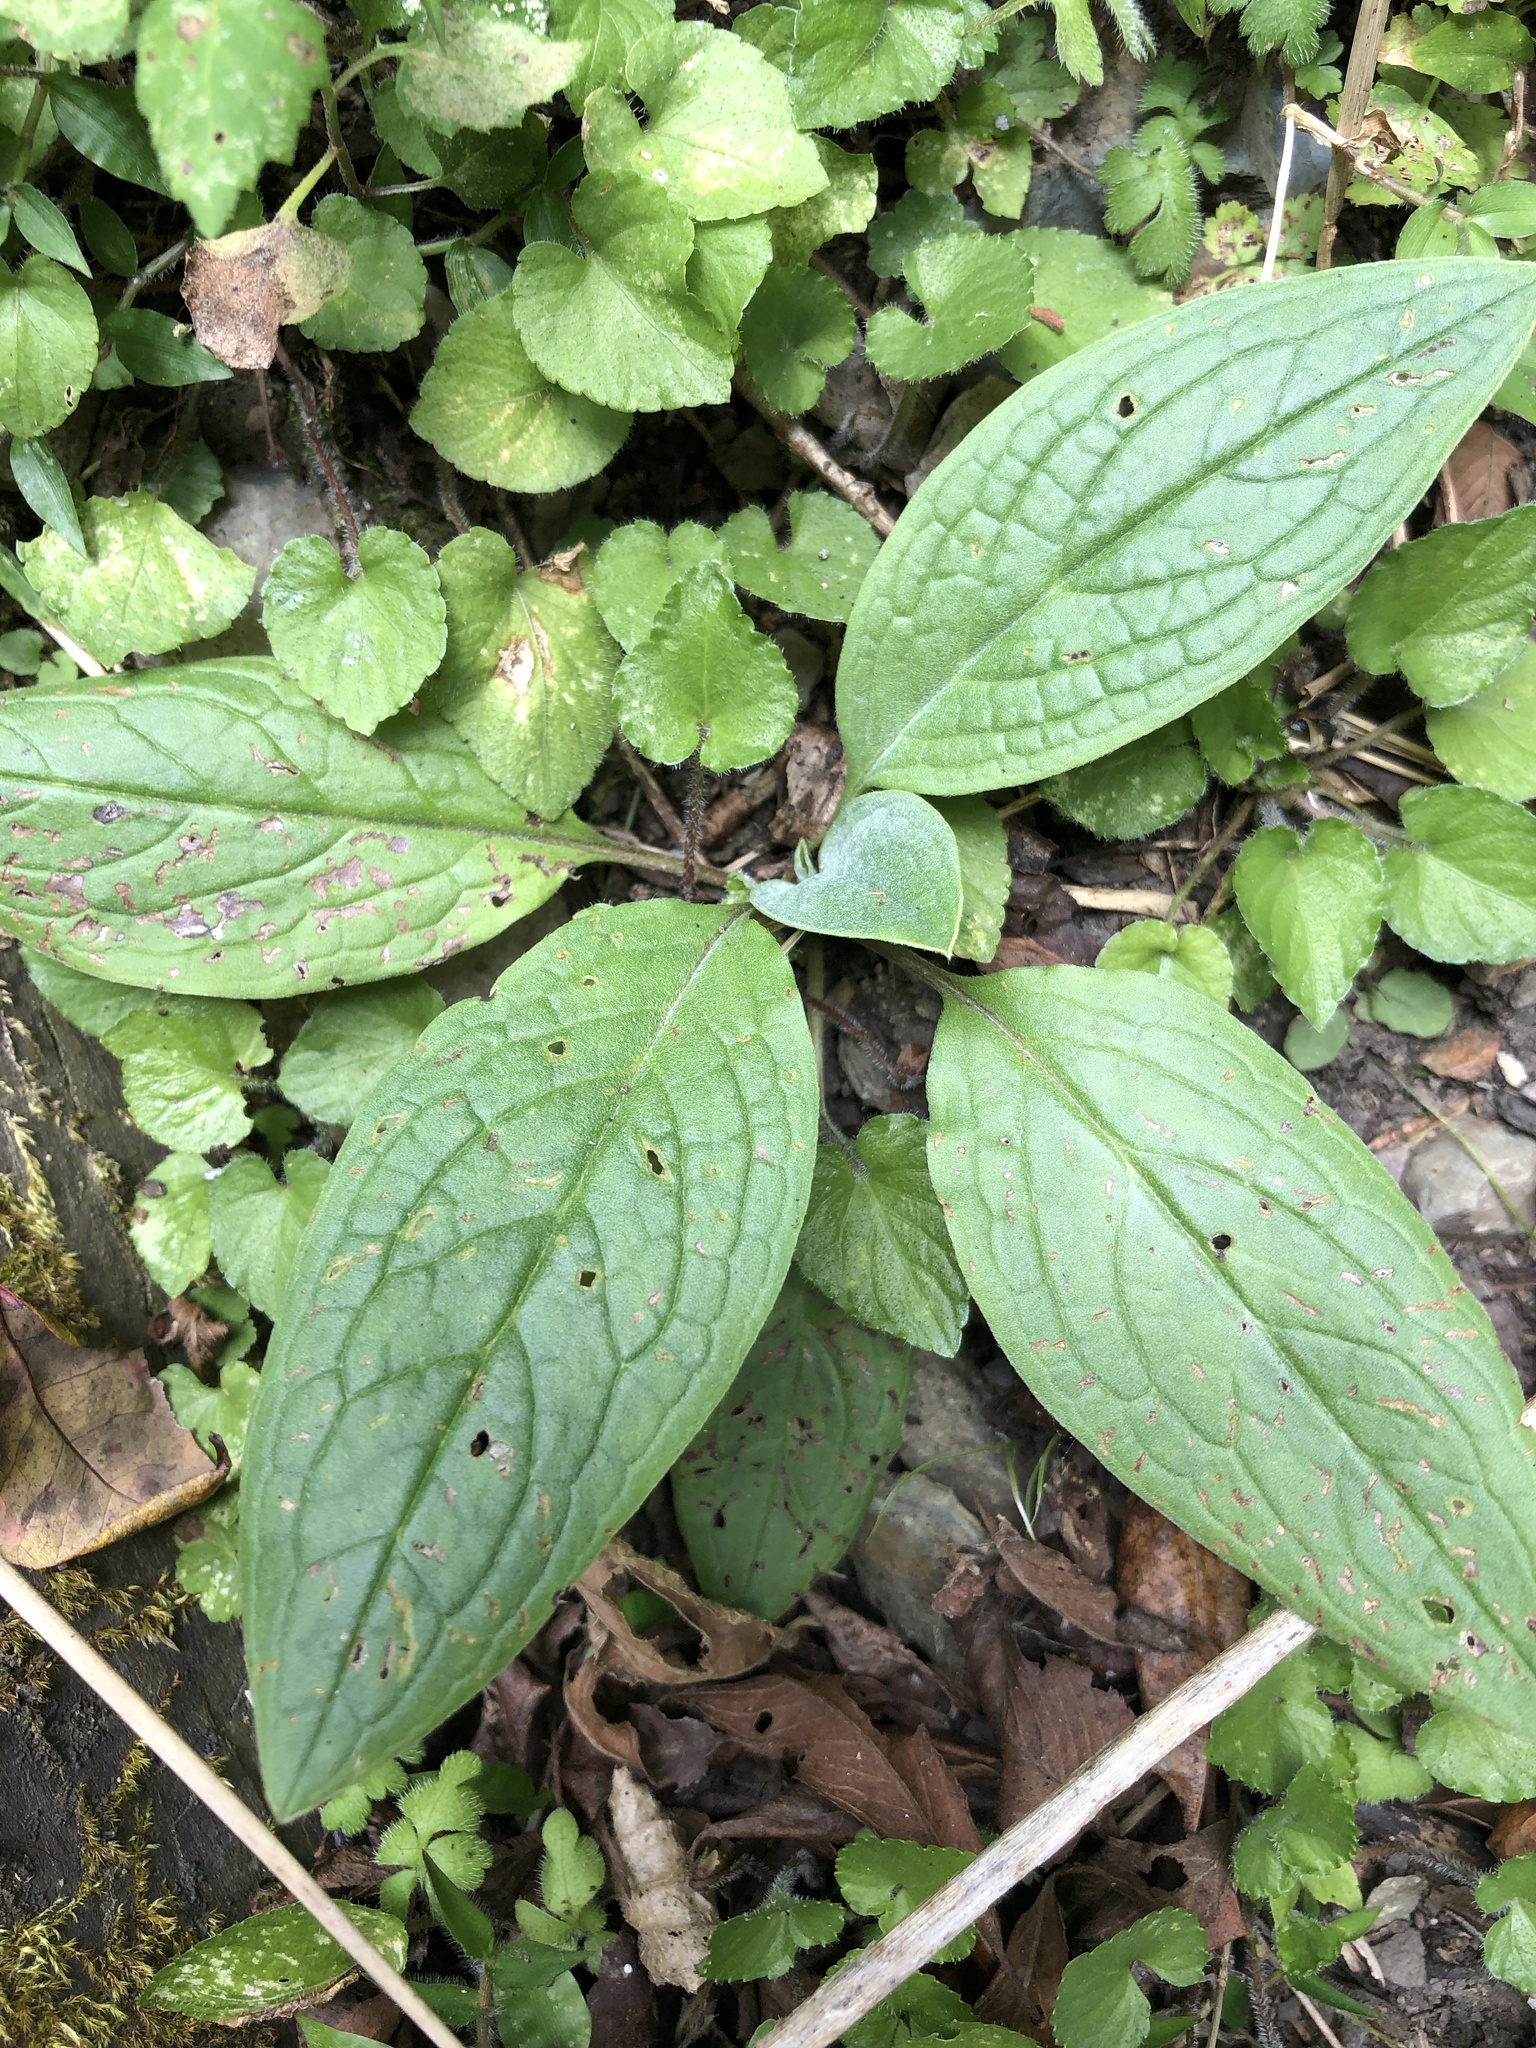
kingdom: Plantae
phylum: Tracheophyta
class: Magnoliopsida
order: Boraginales
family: Boraginaceae
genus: Cynoglossum
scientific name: Cynoglossum zeylanicum
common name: Ceylon hound's tongue
